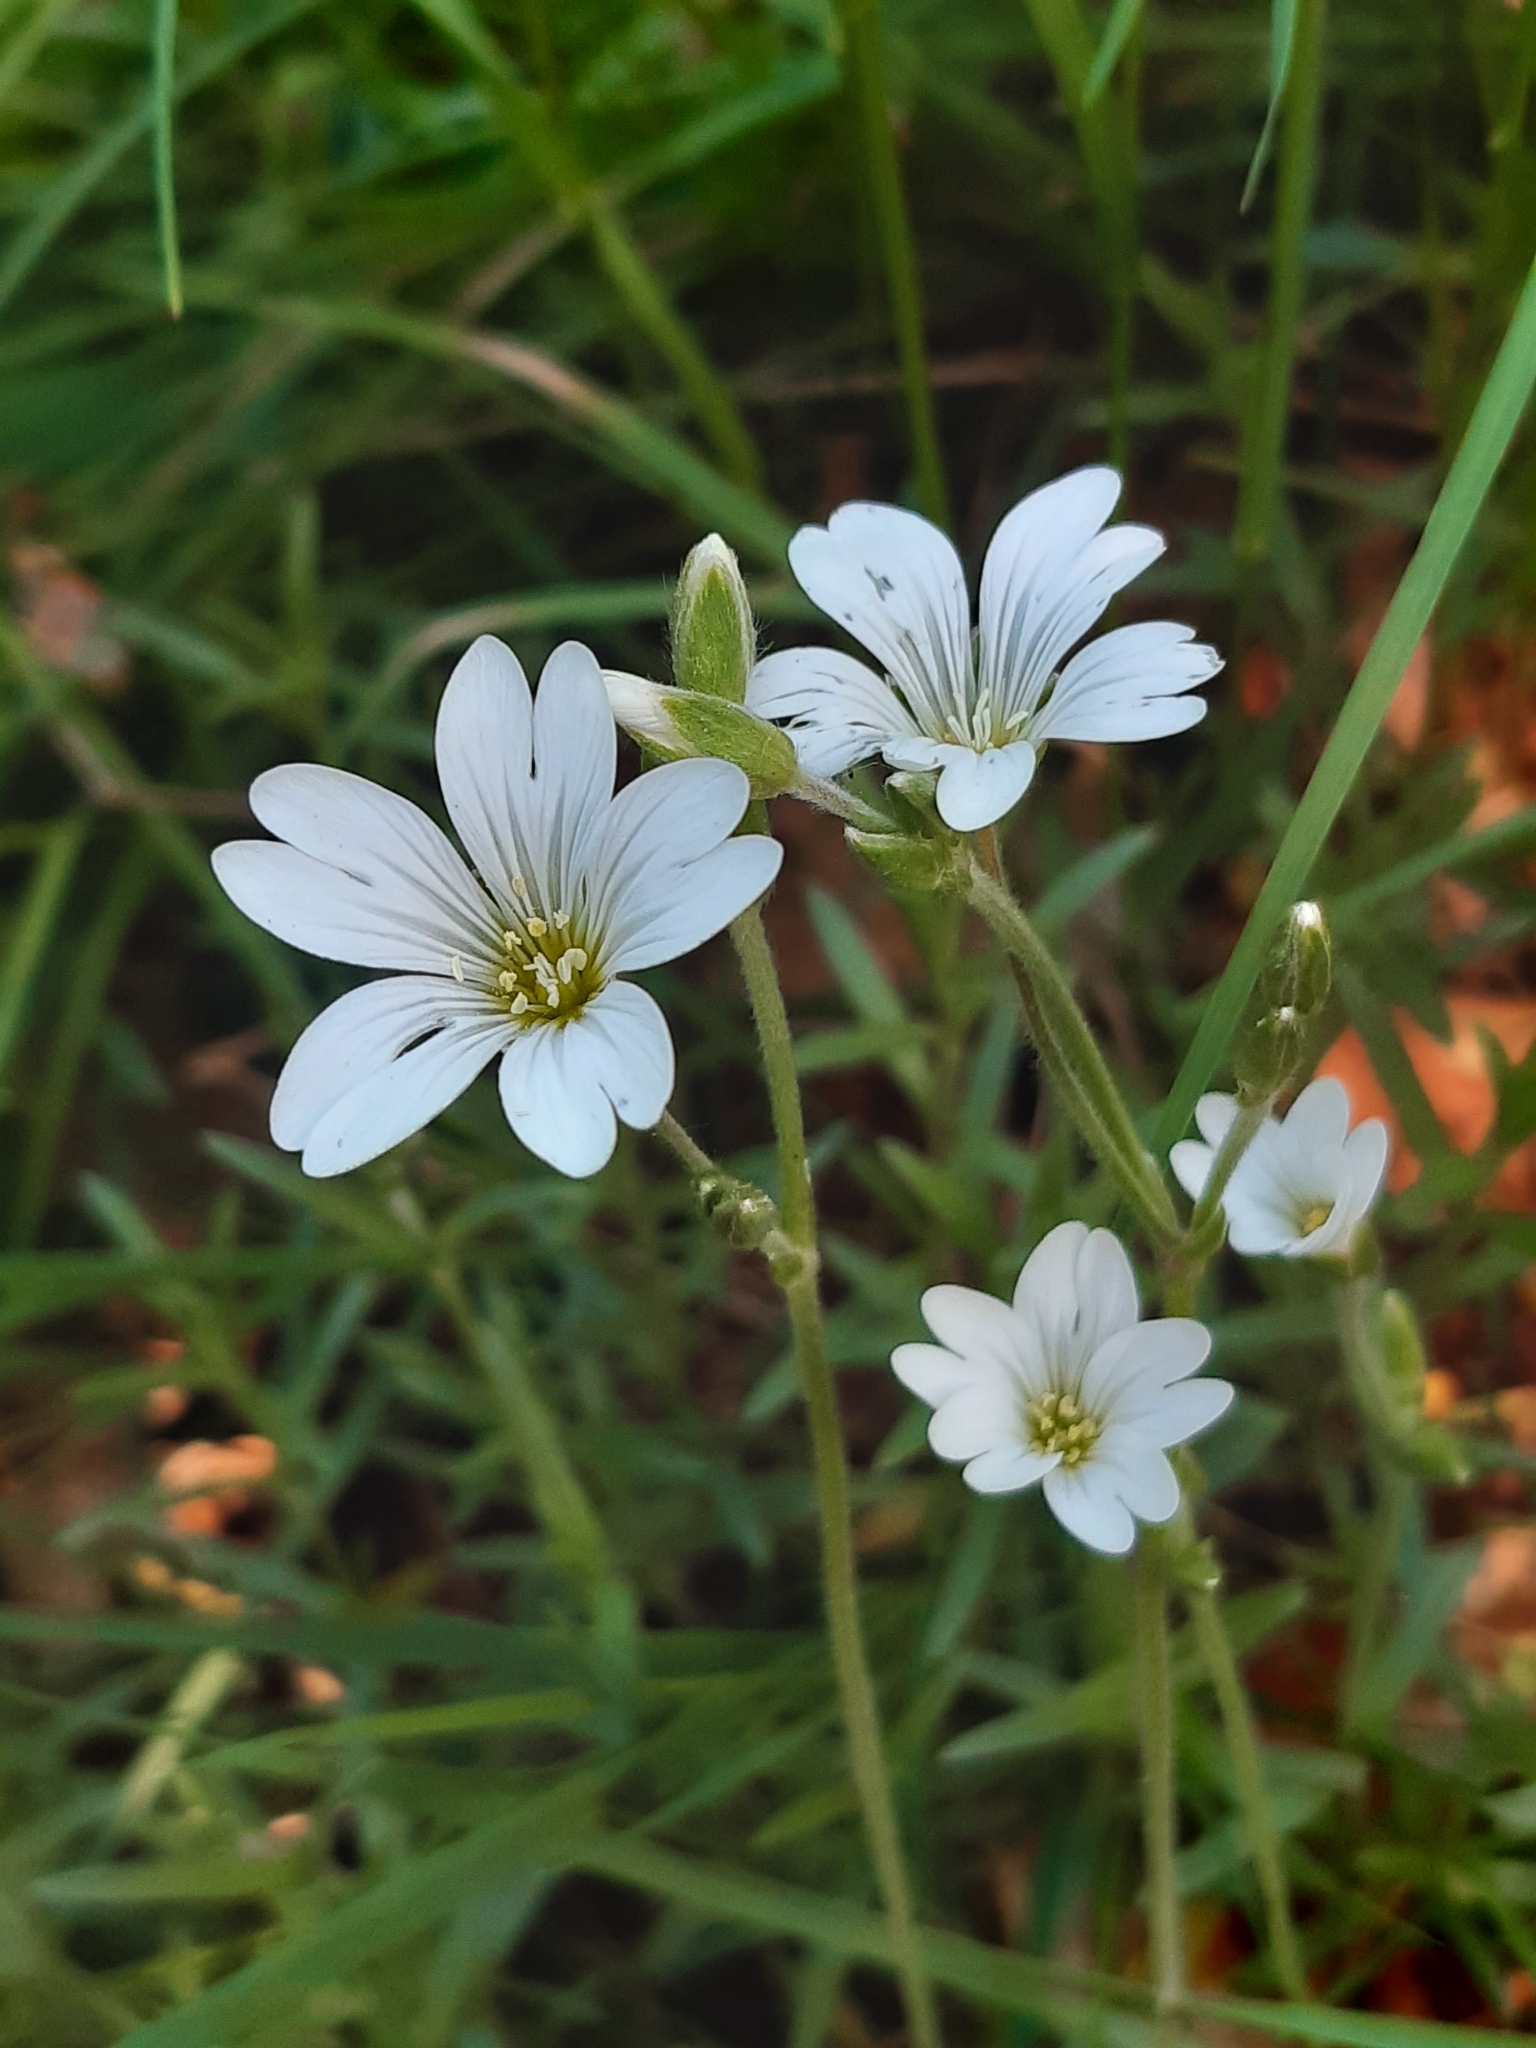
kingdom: Plantae
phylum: Tracheophyta
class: Magnoliopsida
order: Caryophyllales
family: Caryophyllaceae
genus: Cerastium
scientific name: Cerastium arvense
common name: Field mouse-ear
